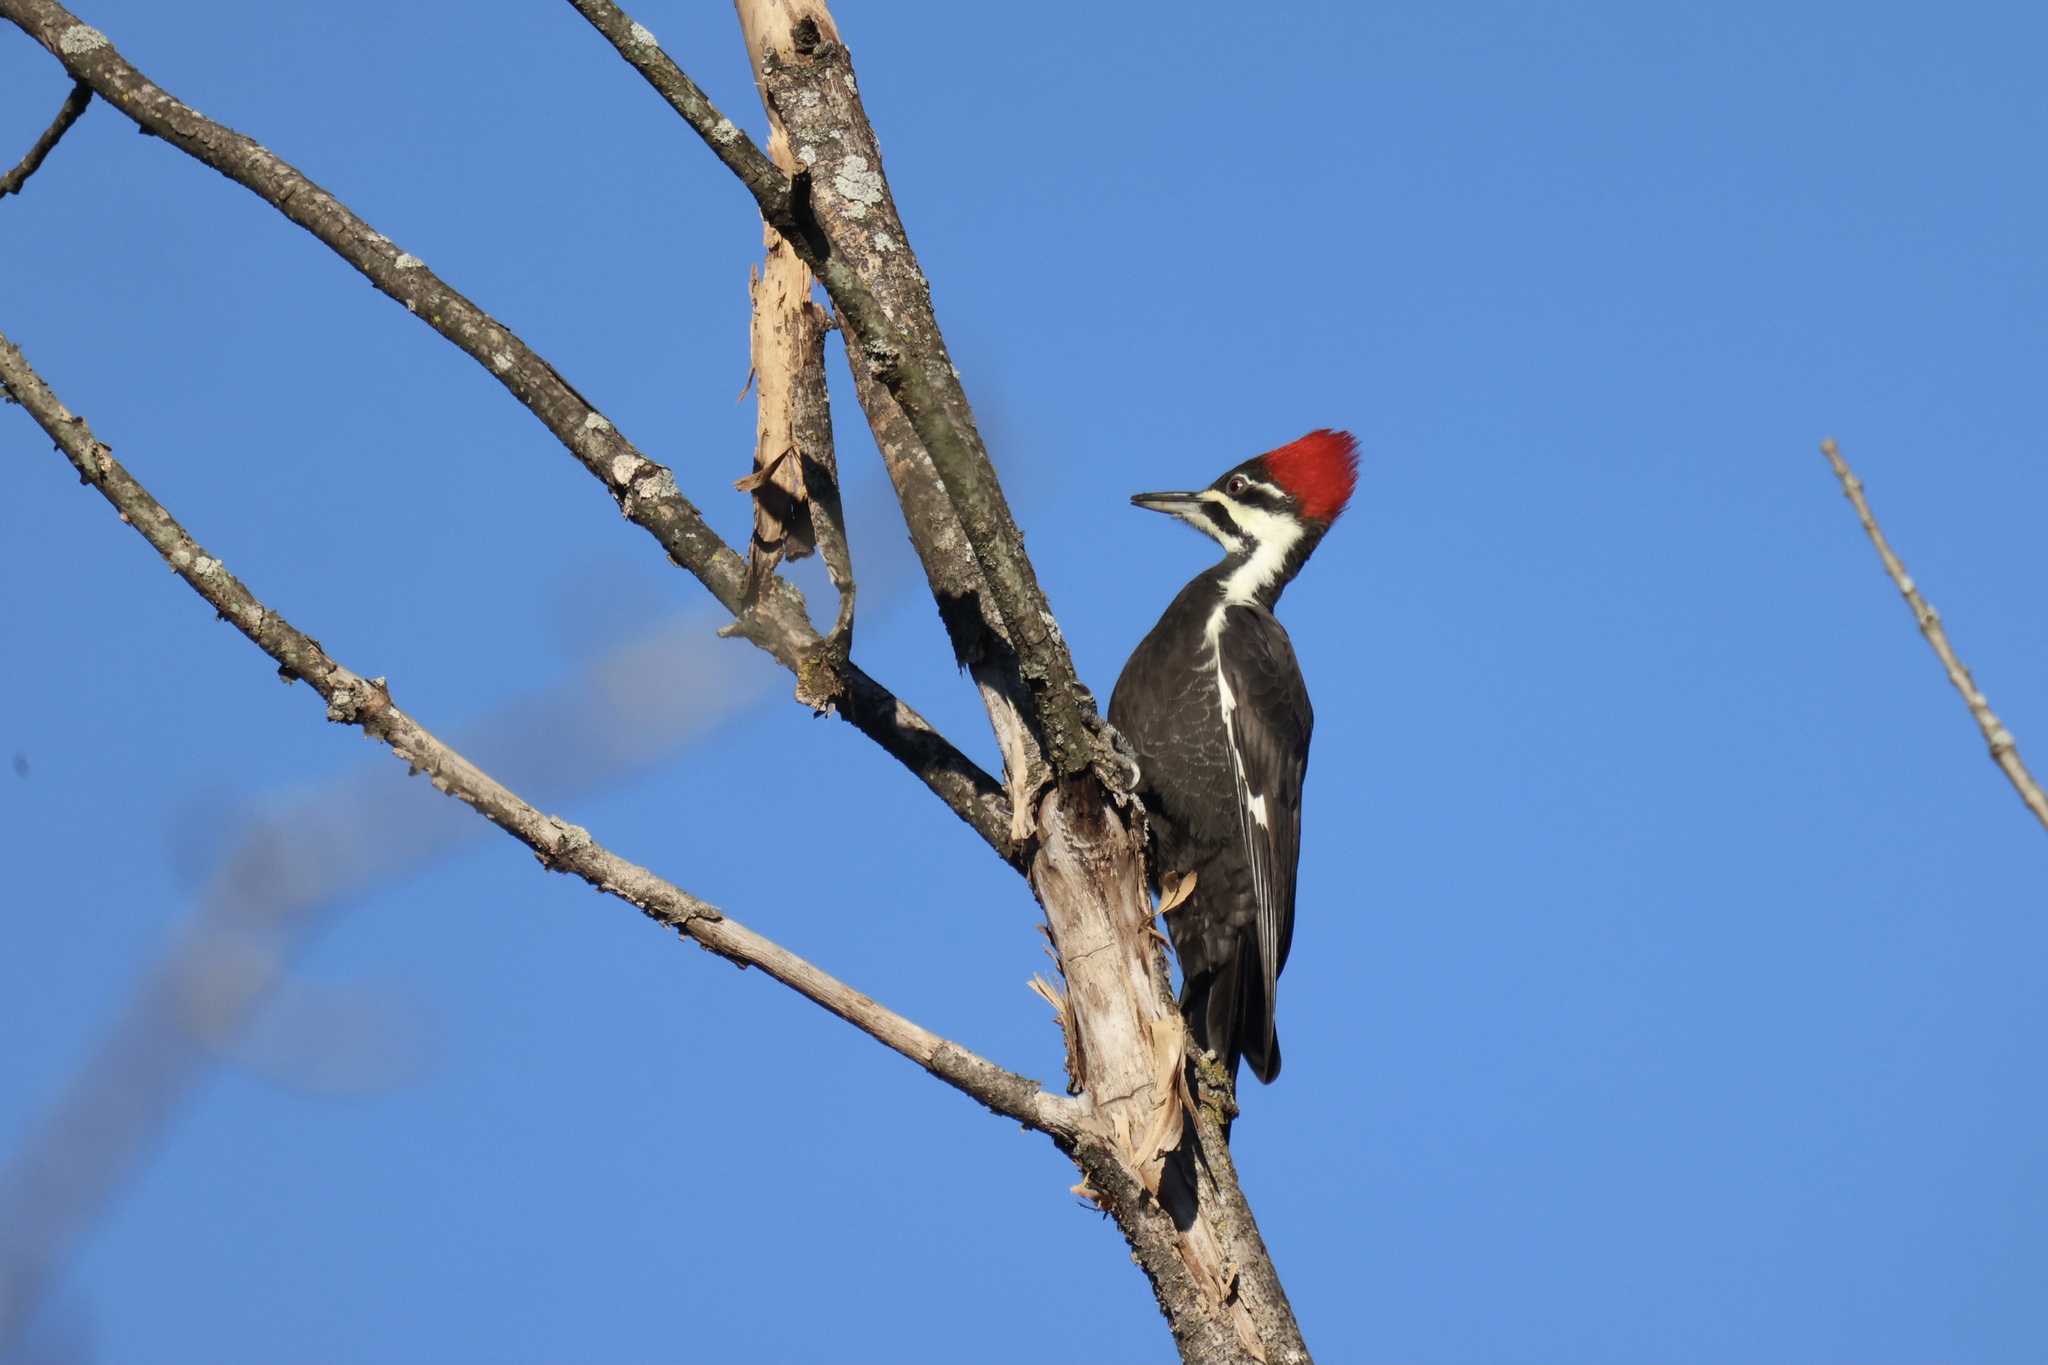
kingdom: Animalia
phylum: Chordata
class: Aves
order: Piciformes
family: Picidae
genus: Dryocopus
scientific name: Dryocopus pileatus
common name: Pileated woodpecker
